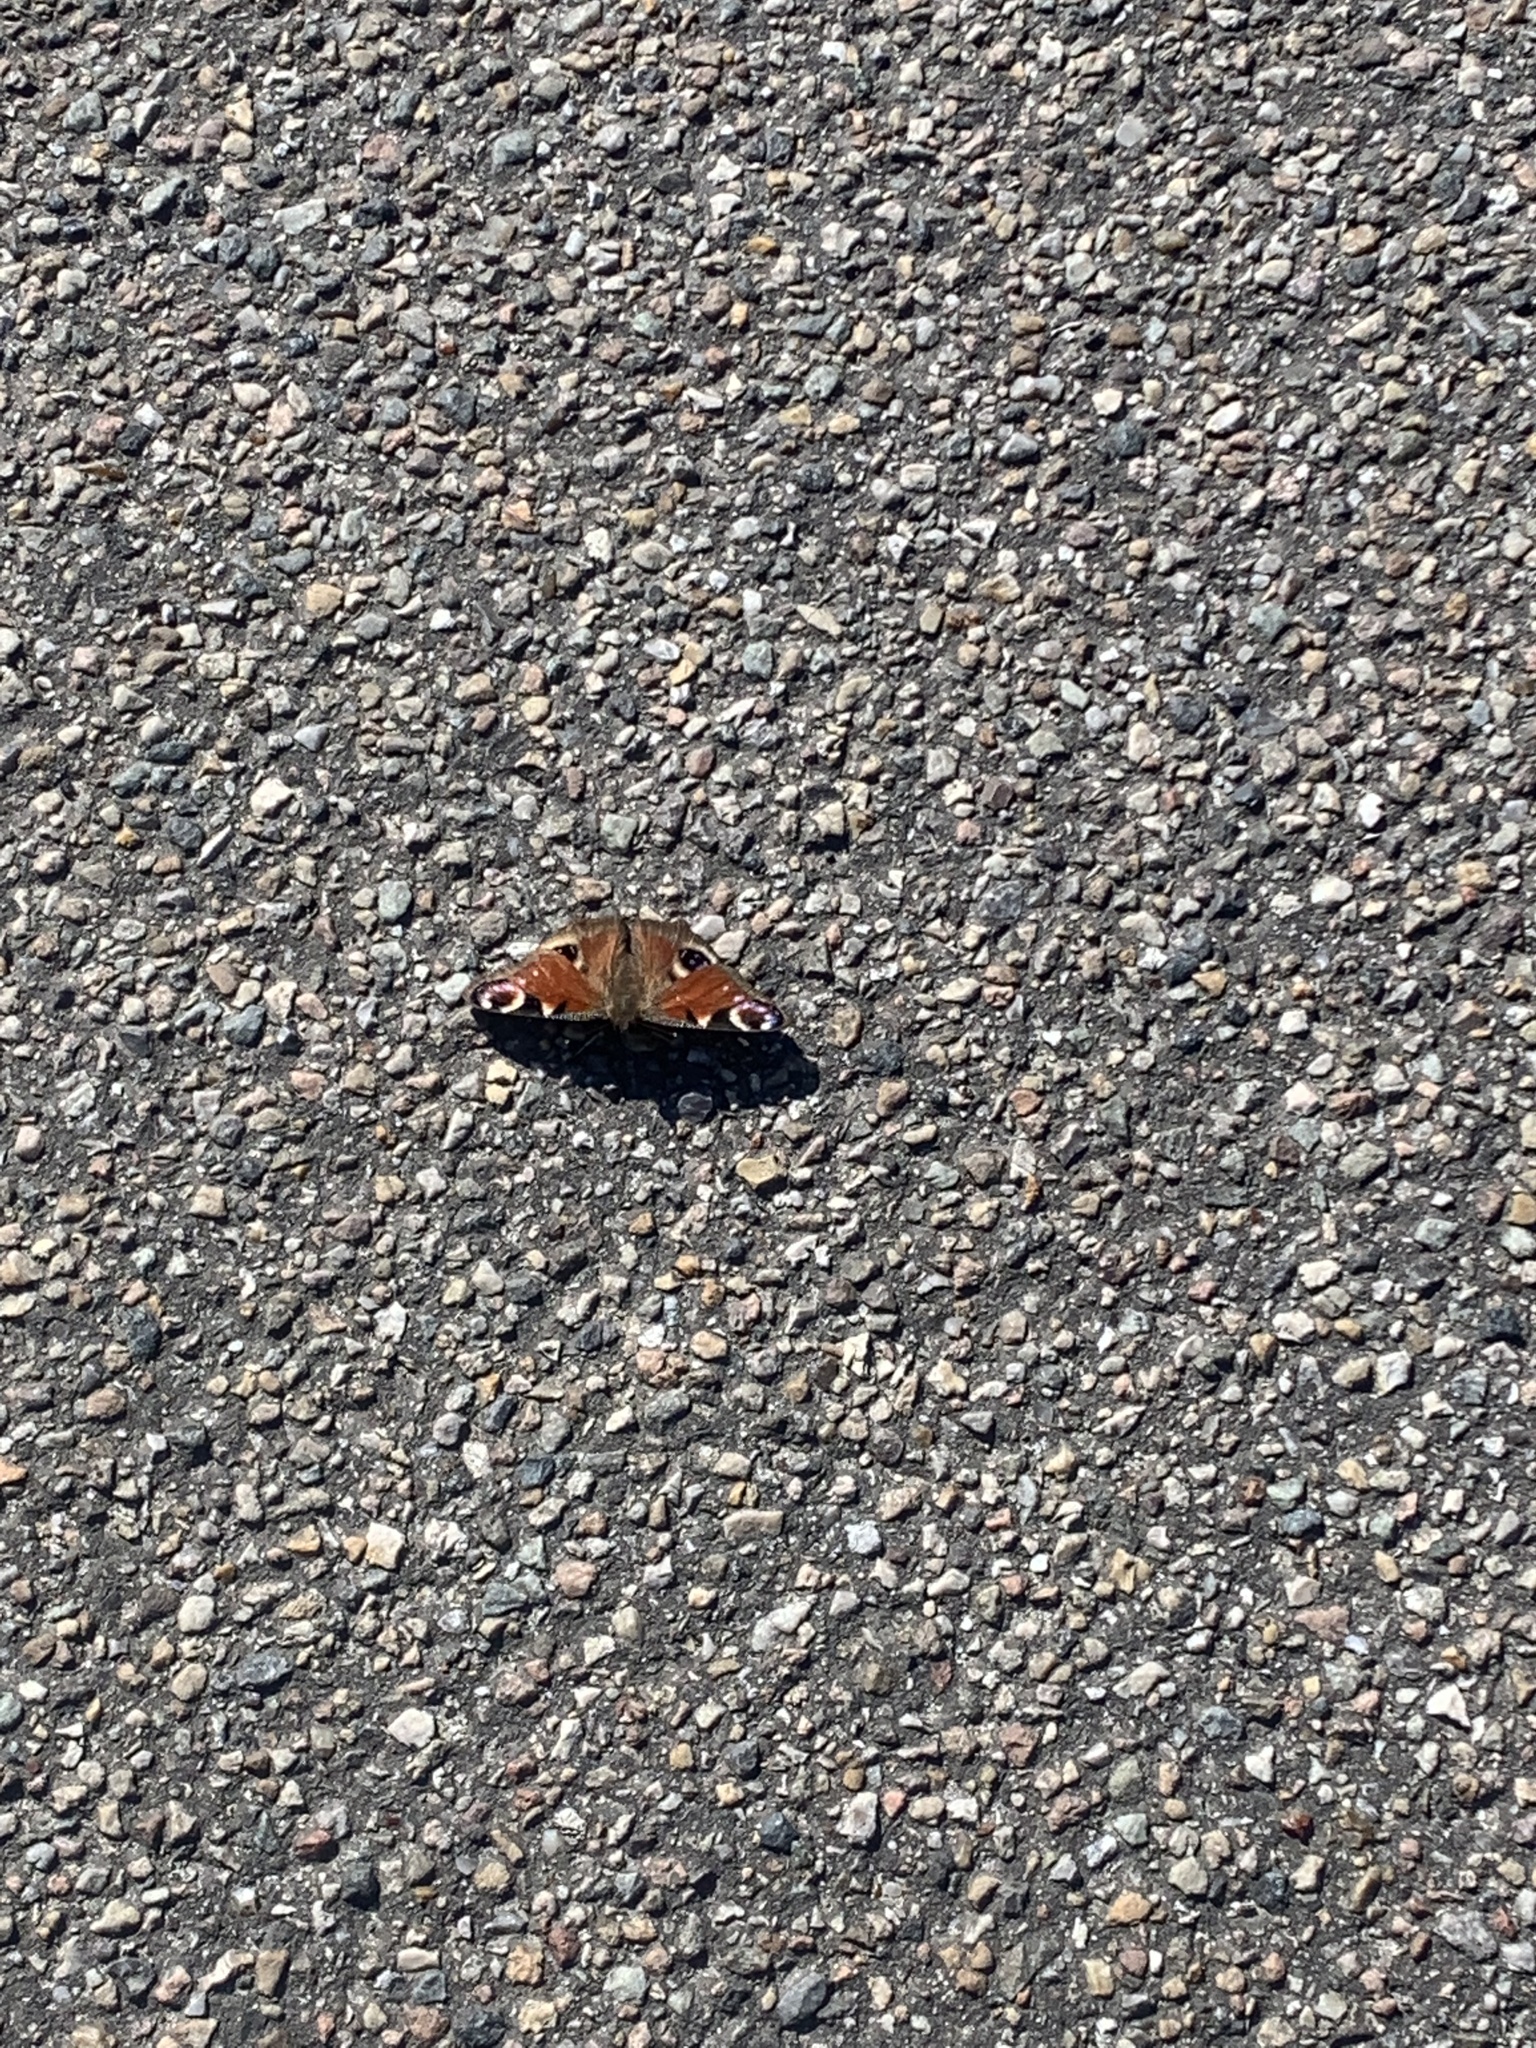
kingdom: Animalia
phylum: Arthropoda
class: Insecta
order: Lepidoptera
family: Nymphalidae
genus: Aglais
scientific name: Aglais io
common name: Peacock
